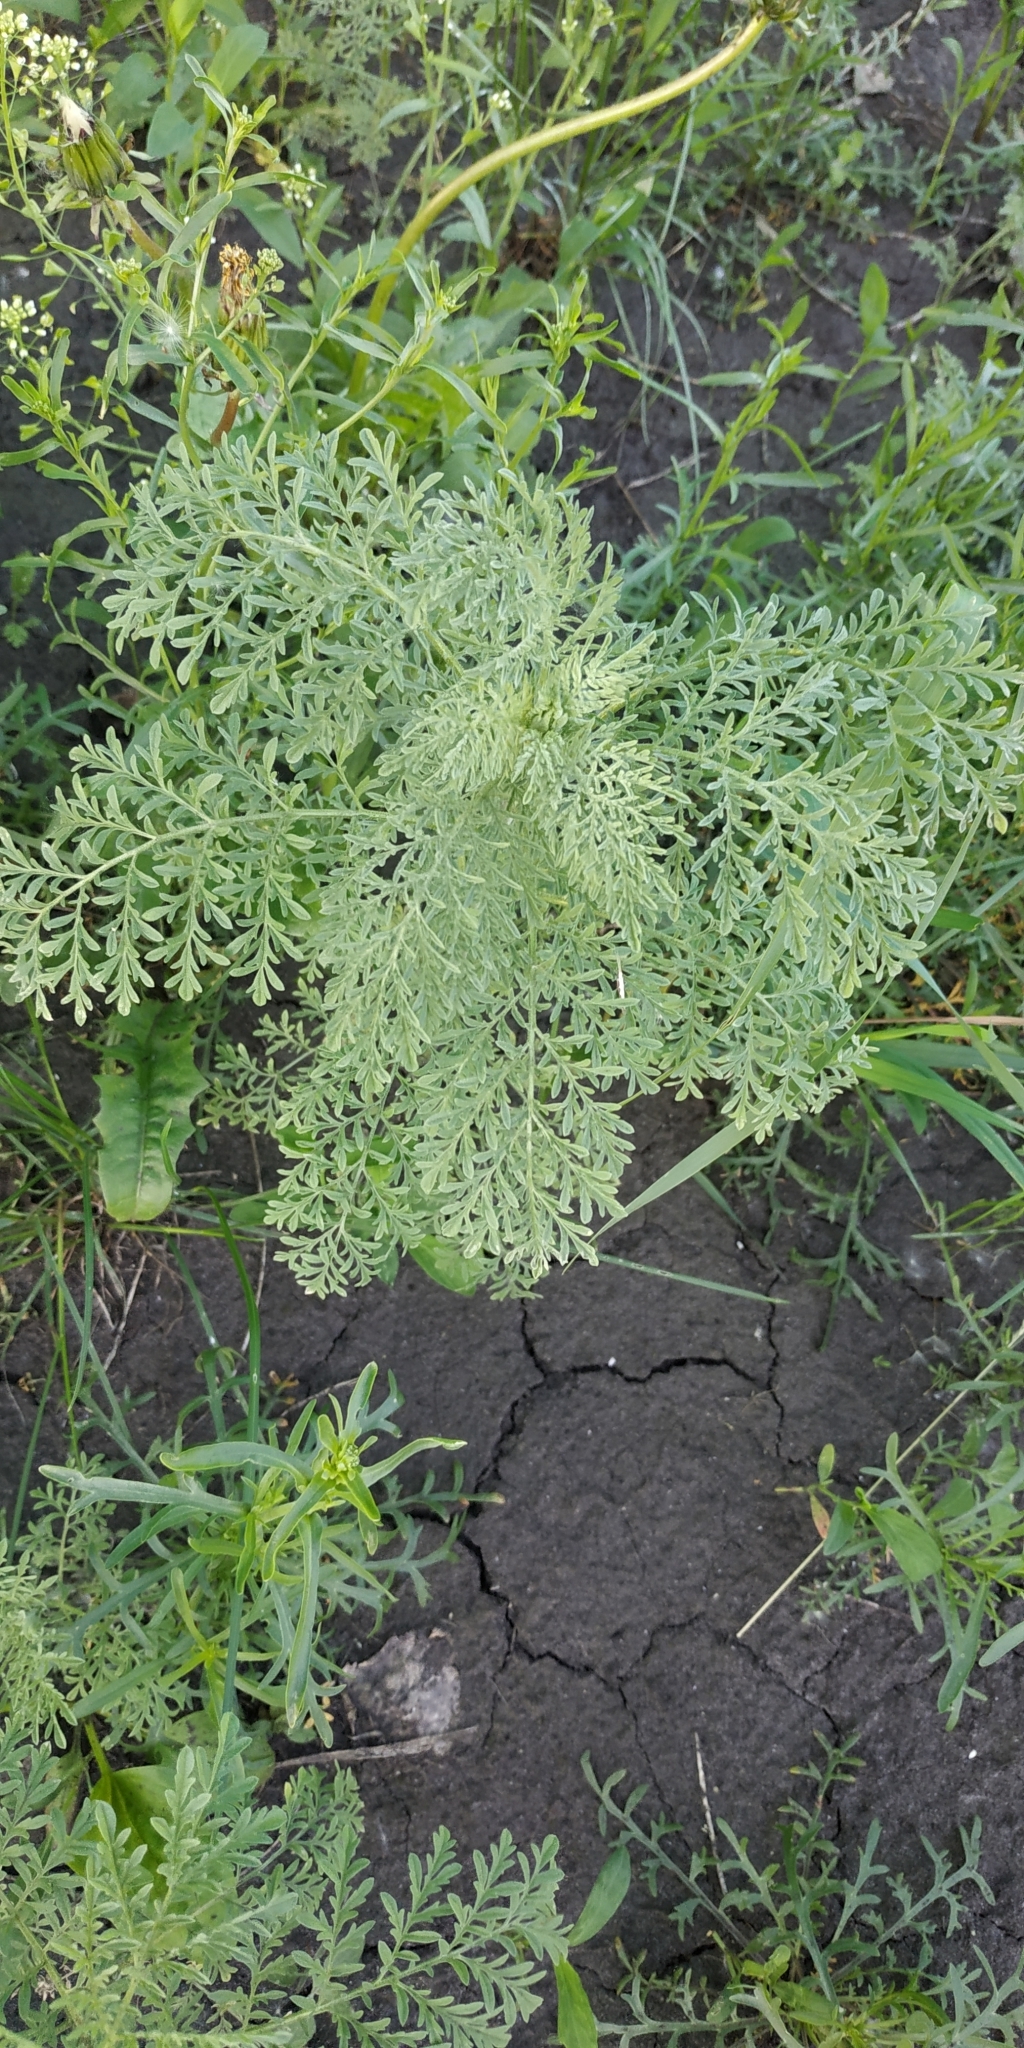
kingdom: Plantae
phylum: Tracheophyta
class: Magnoliopsida
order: Brassicales
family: Brassicaceae
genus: Descurainia
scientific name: Descurainia sophia
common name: Flixweed
